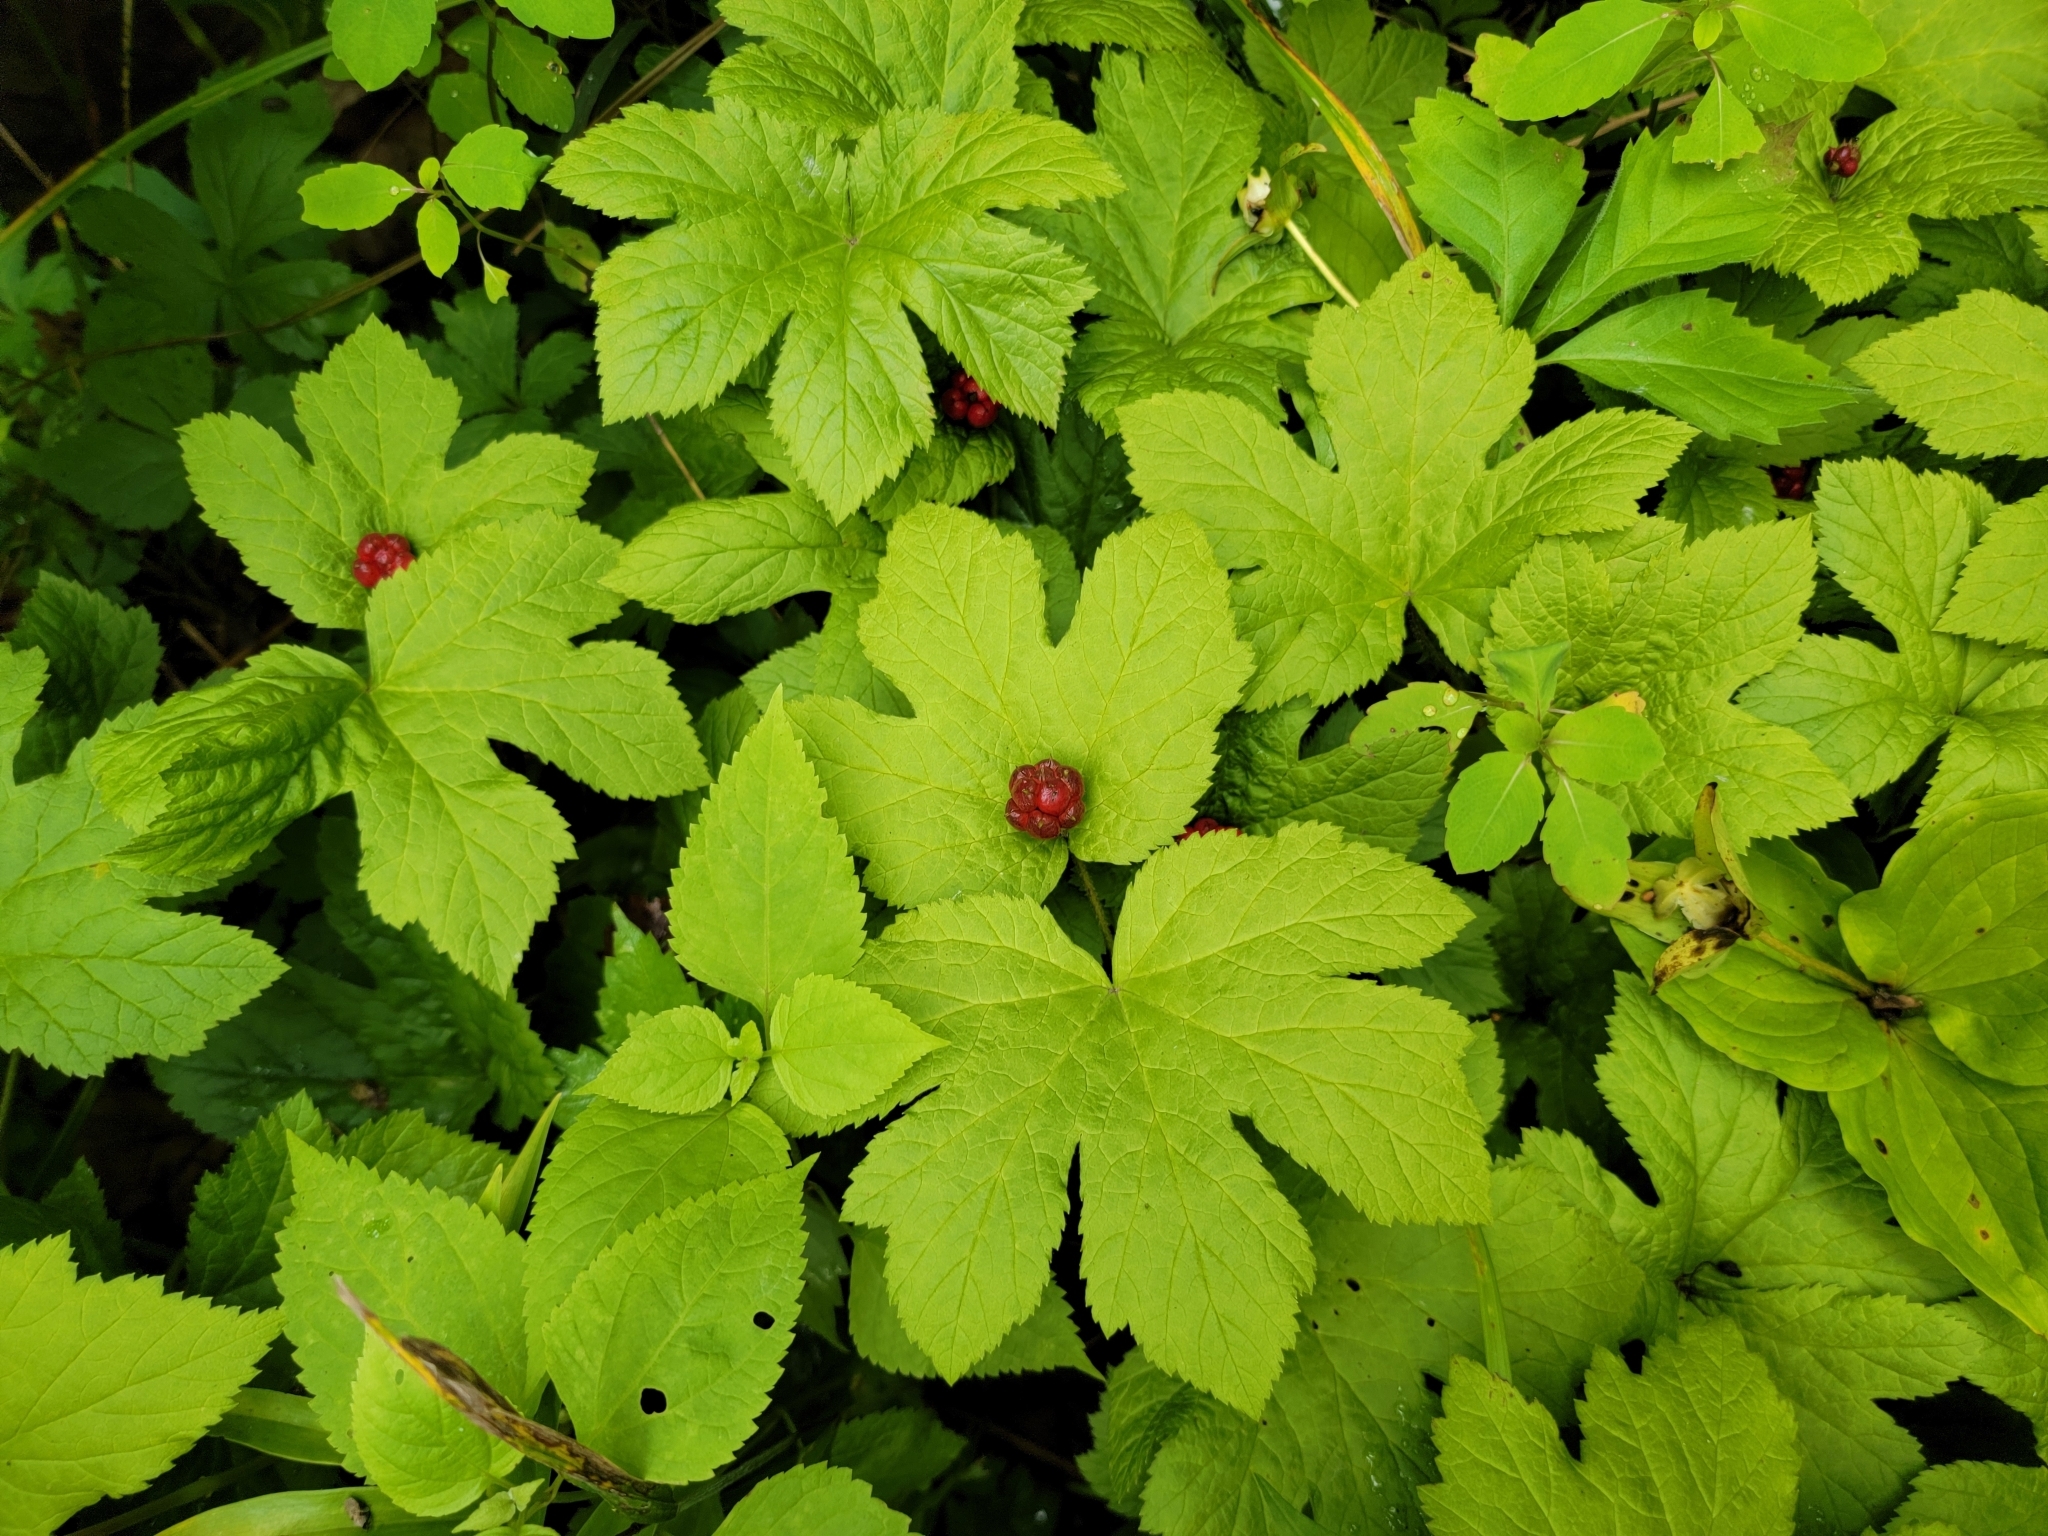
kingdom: Plantae
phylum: Tracheophyta
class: Magnoliopsida
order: Ranunculales
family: Ranunculaceae
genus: Hydrastis
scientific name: Hydrastis canadensis
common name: Goldenseal
